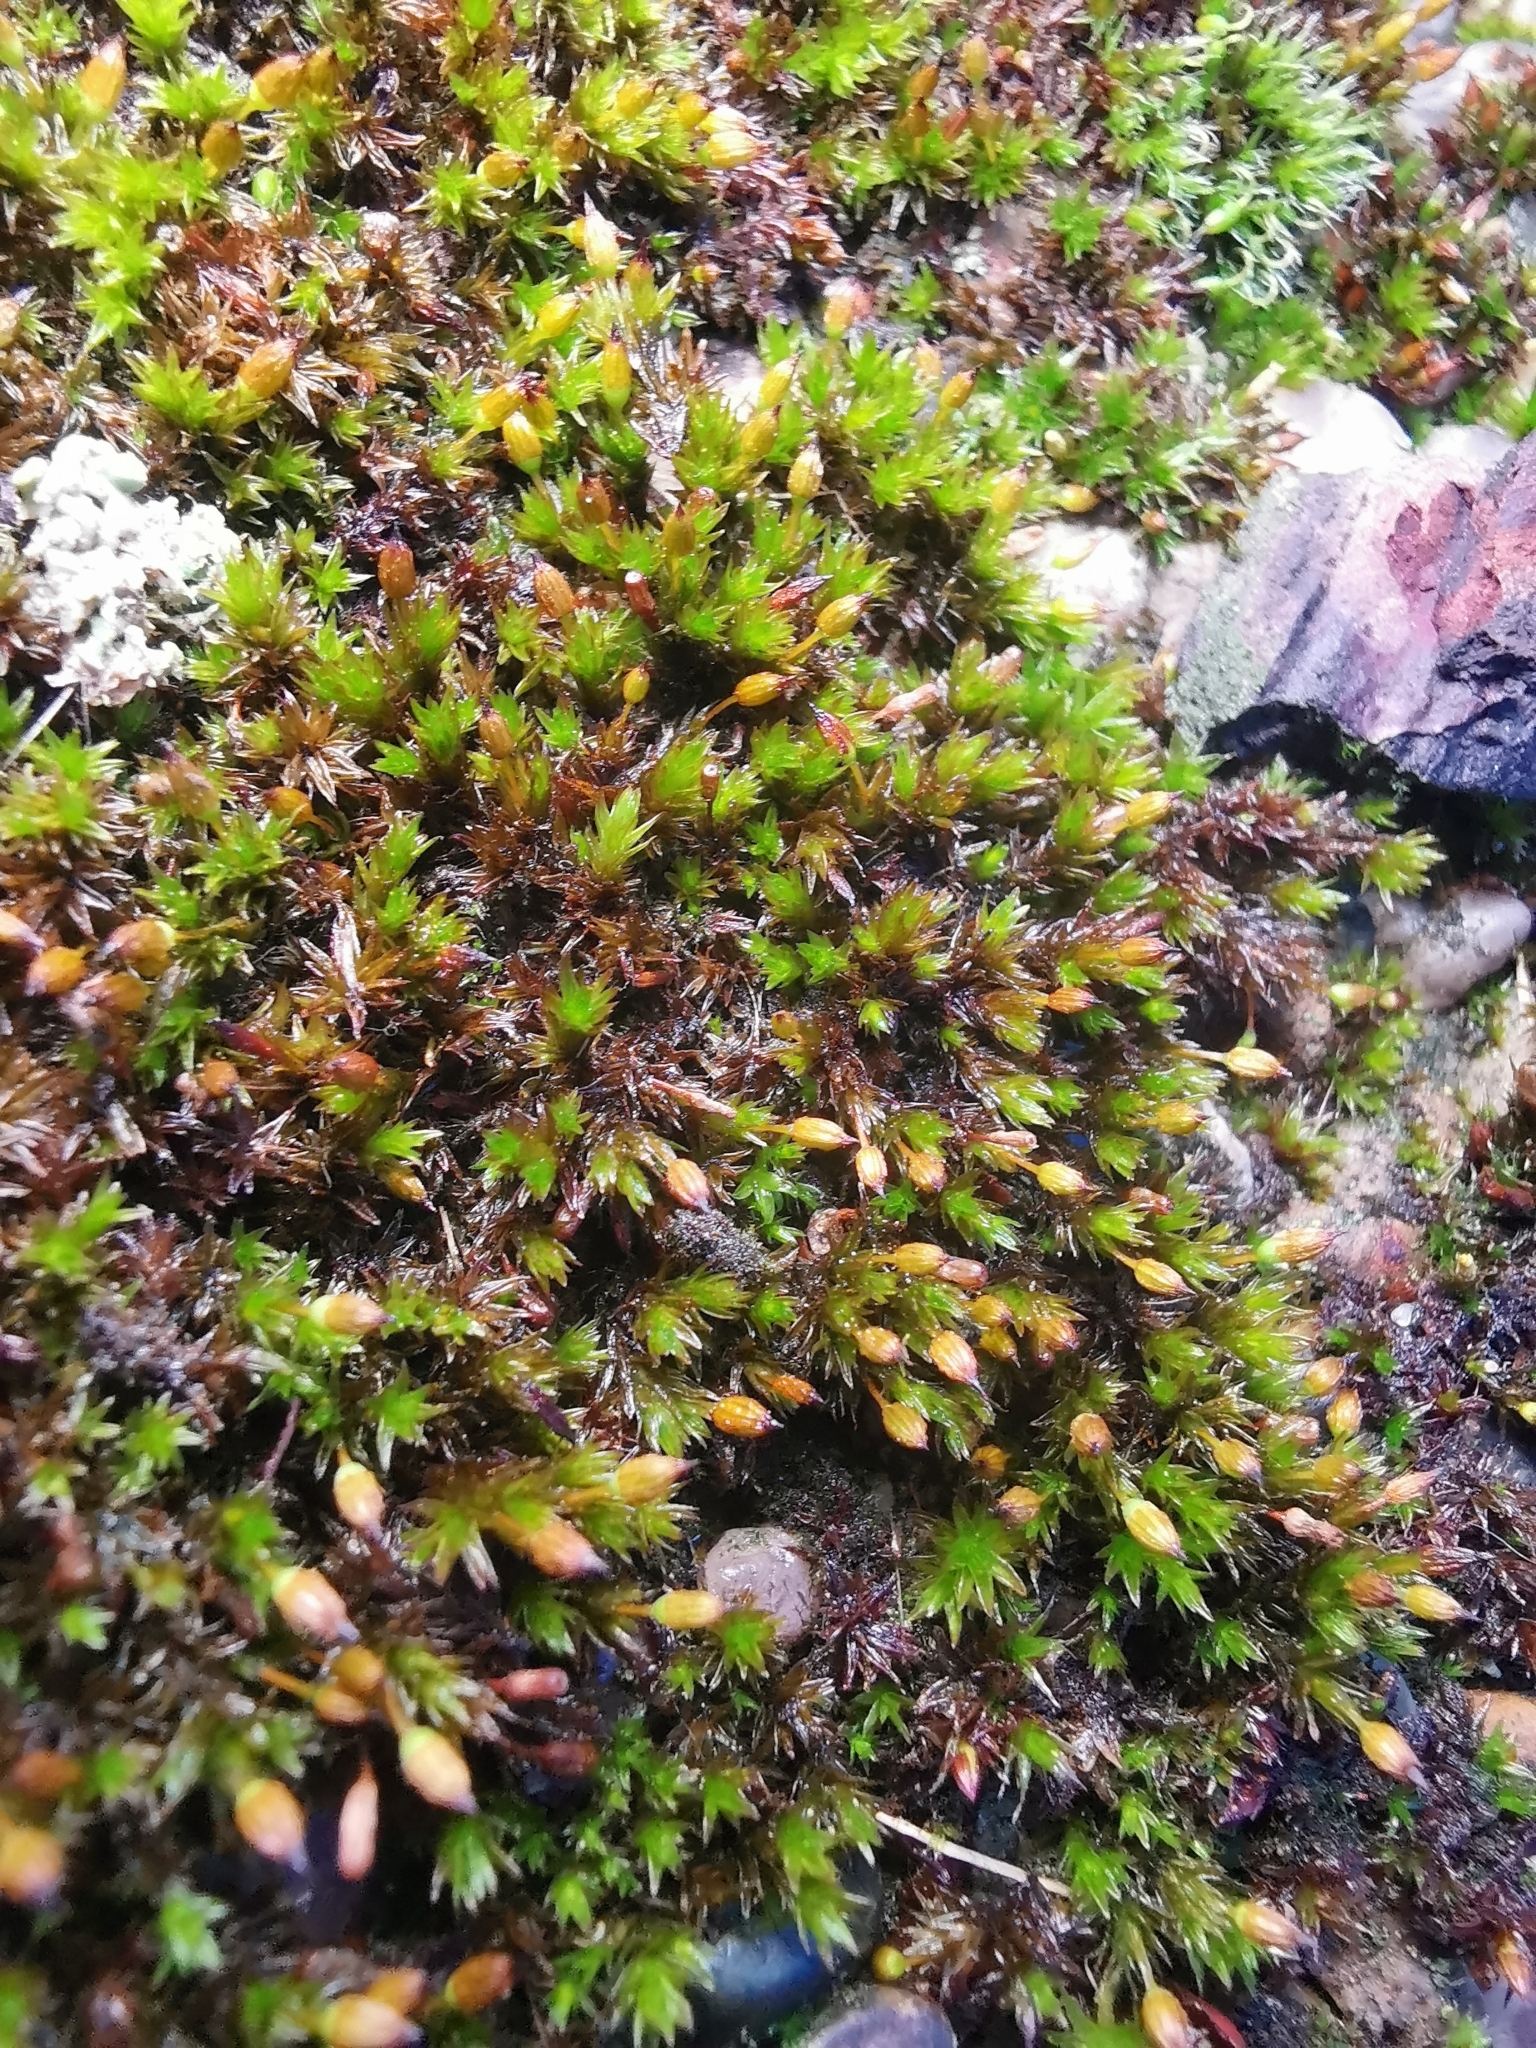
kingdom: Plantae
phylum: Bryophyta
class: Bryopsida
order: Orthotrichales
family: Orthotrichaceae
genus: Orthotrichum
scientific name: Orthotrichum anomalum
